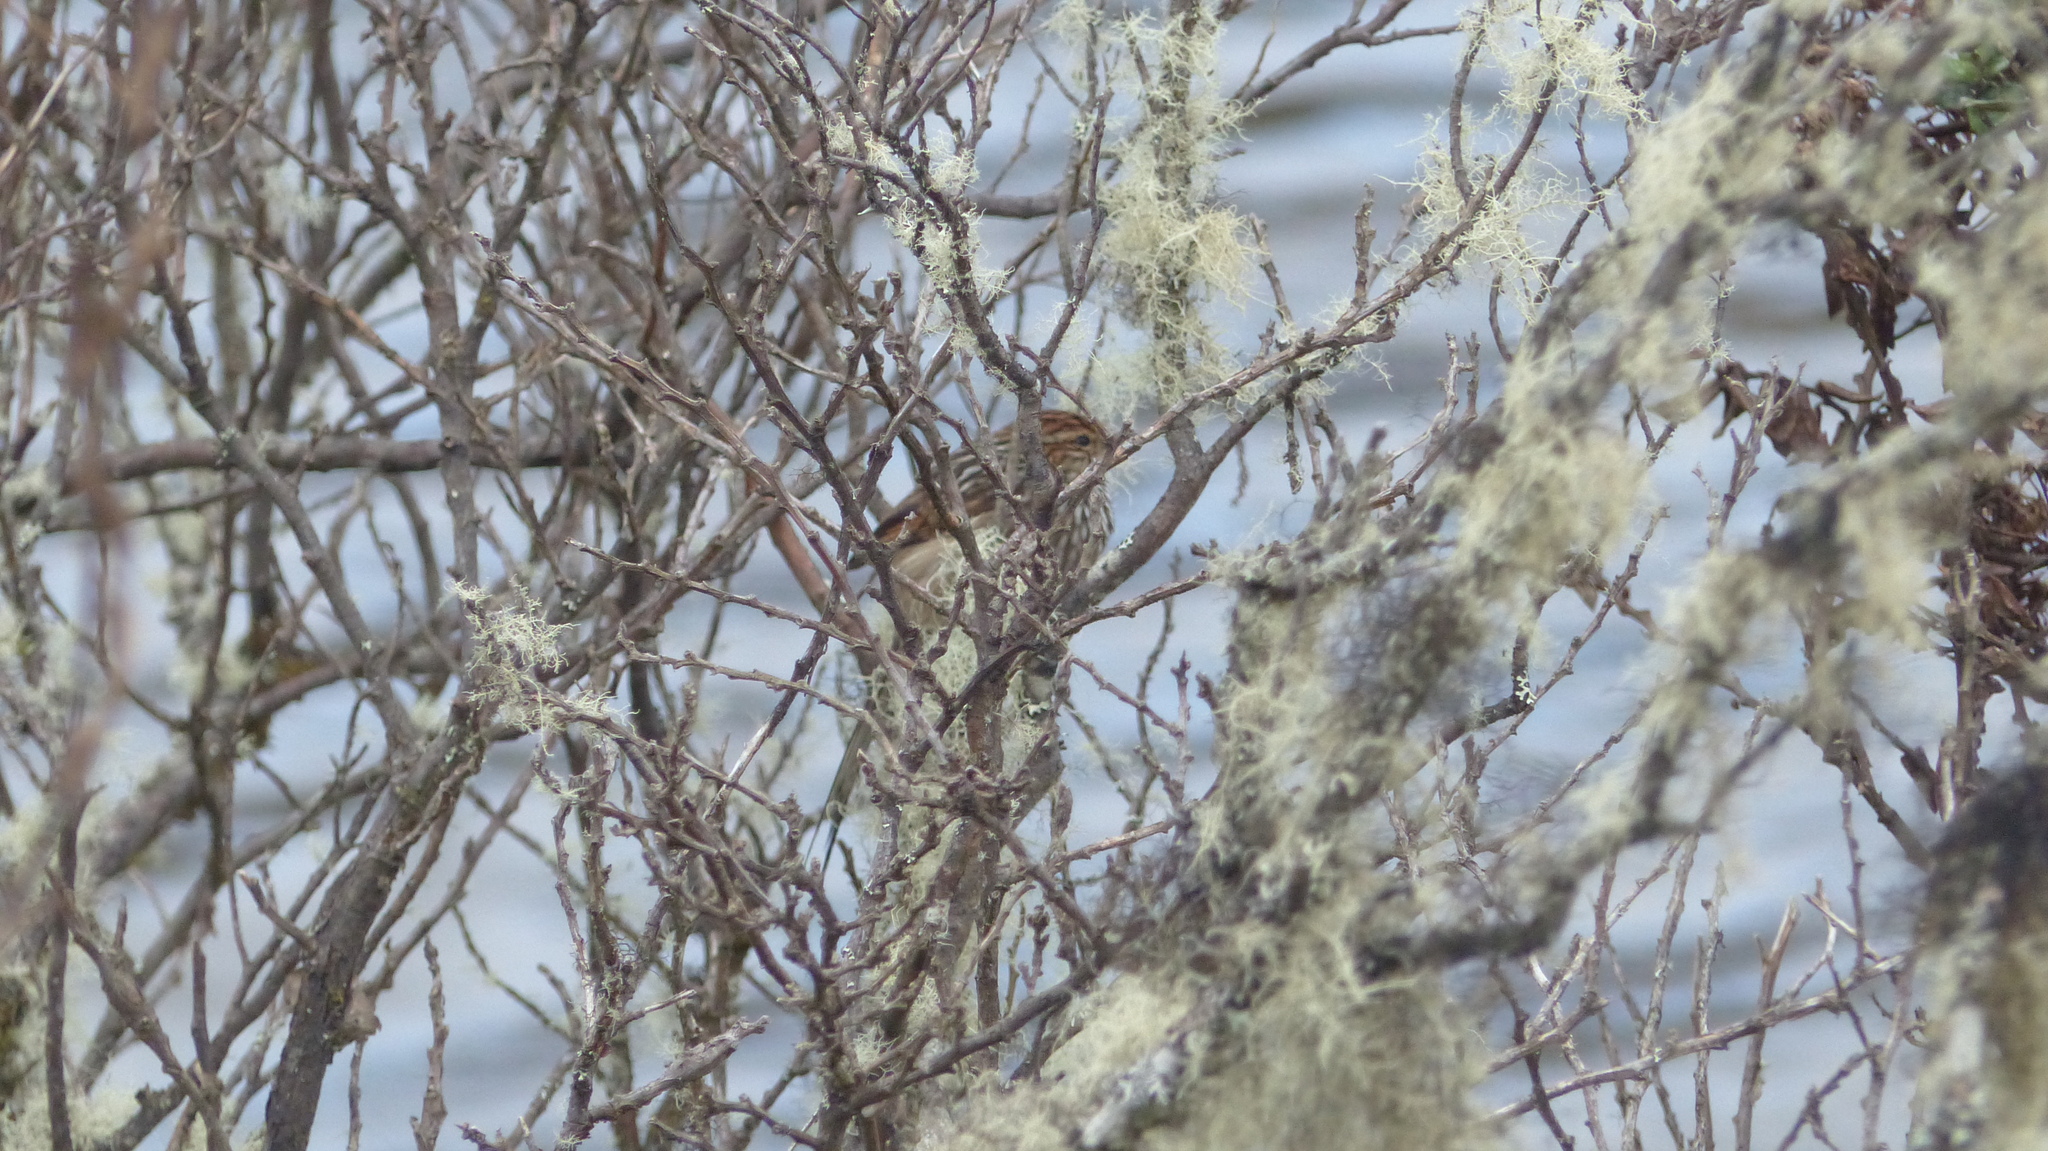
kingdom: Animalia
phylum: Chordata
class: Aves
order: Passeriformes
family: Furnariidae
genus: Asthenes
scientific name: Asthenes flammulata
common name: Many-striped canastero
